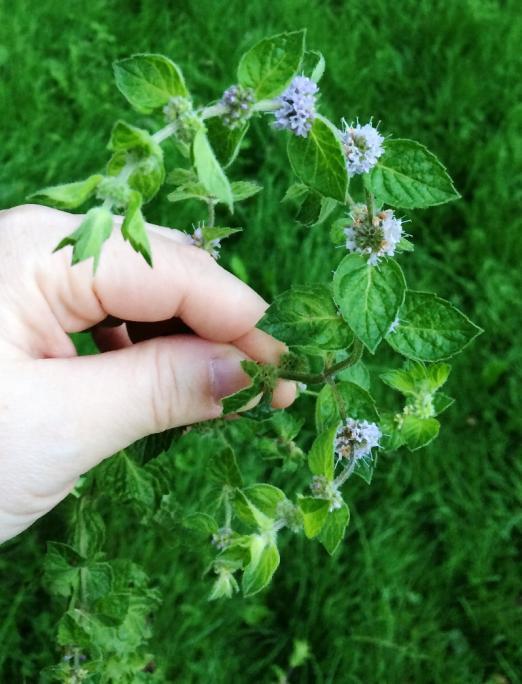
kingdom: Plantae
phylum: Tracheophyta
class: Magnoliopsida
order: Lamiales
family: Lamiaceae
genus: Mentha
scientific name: Mentha arvensis
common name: Corn mint
